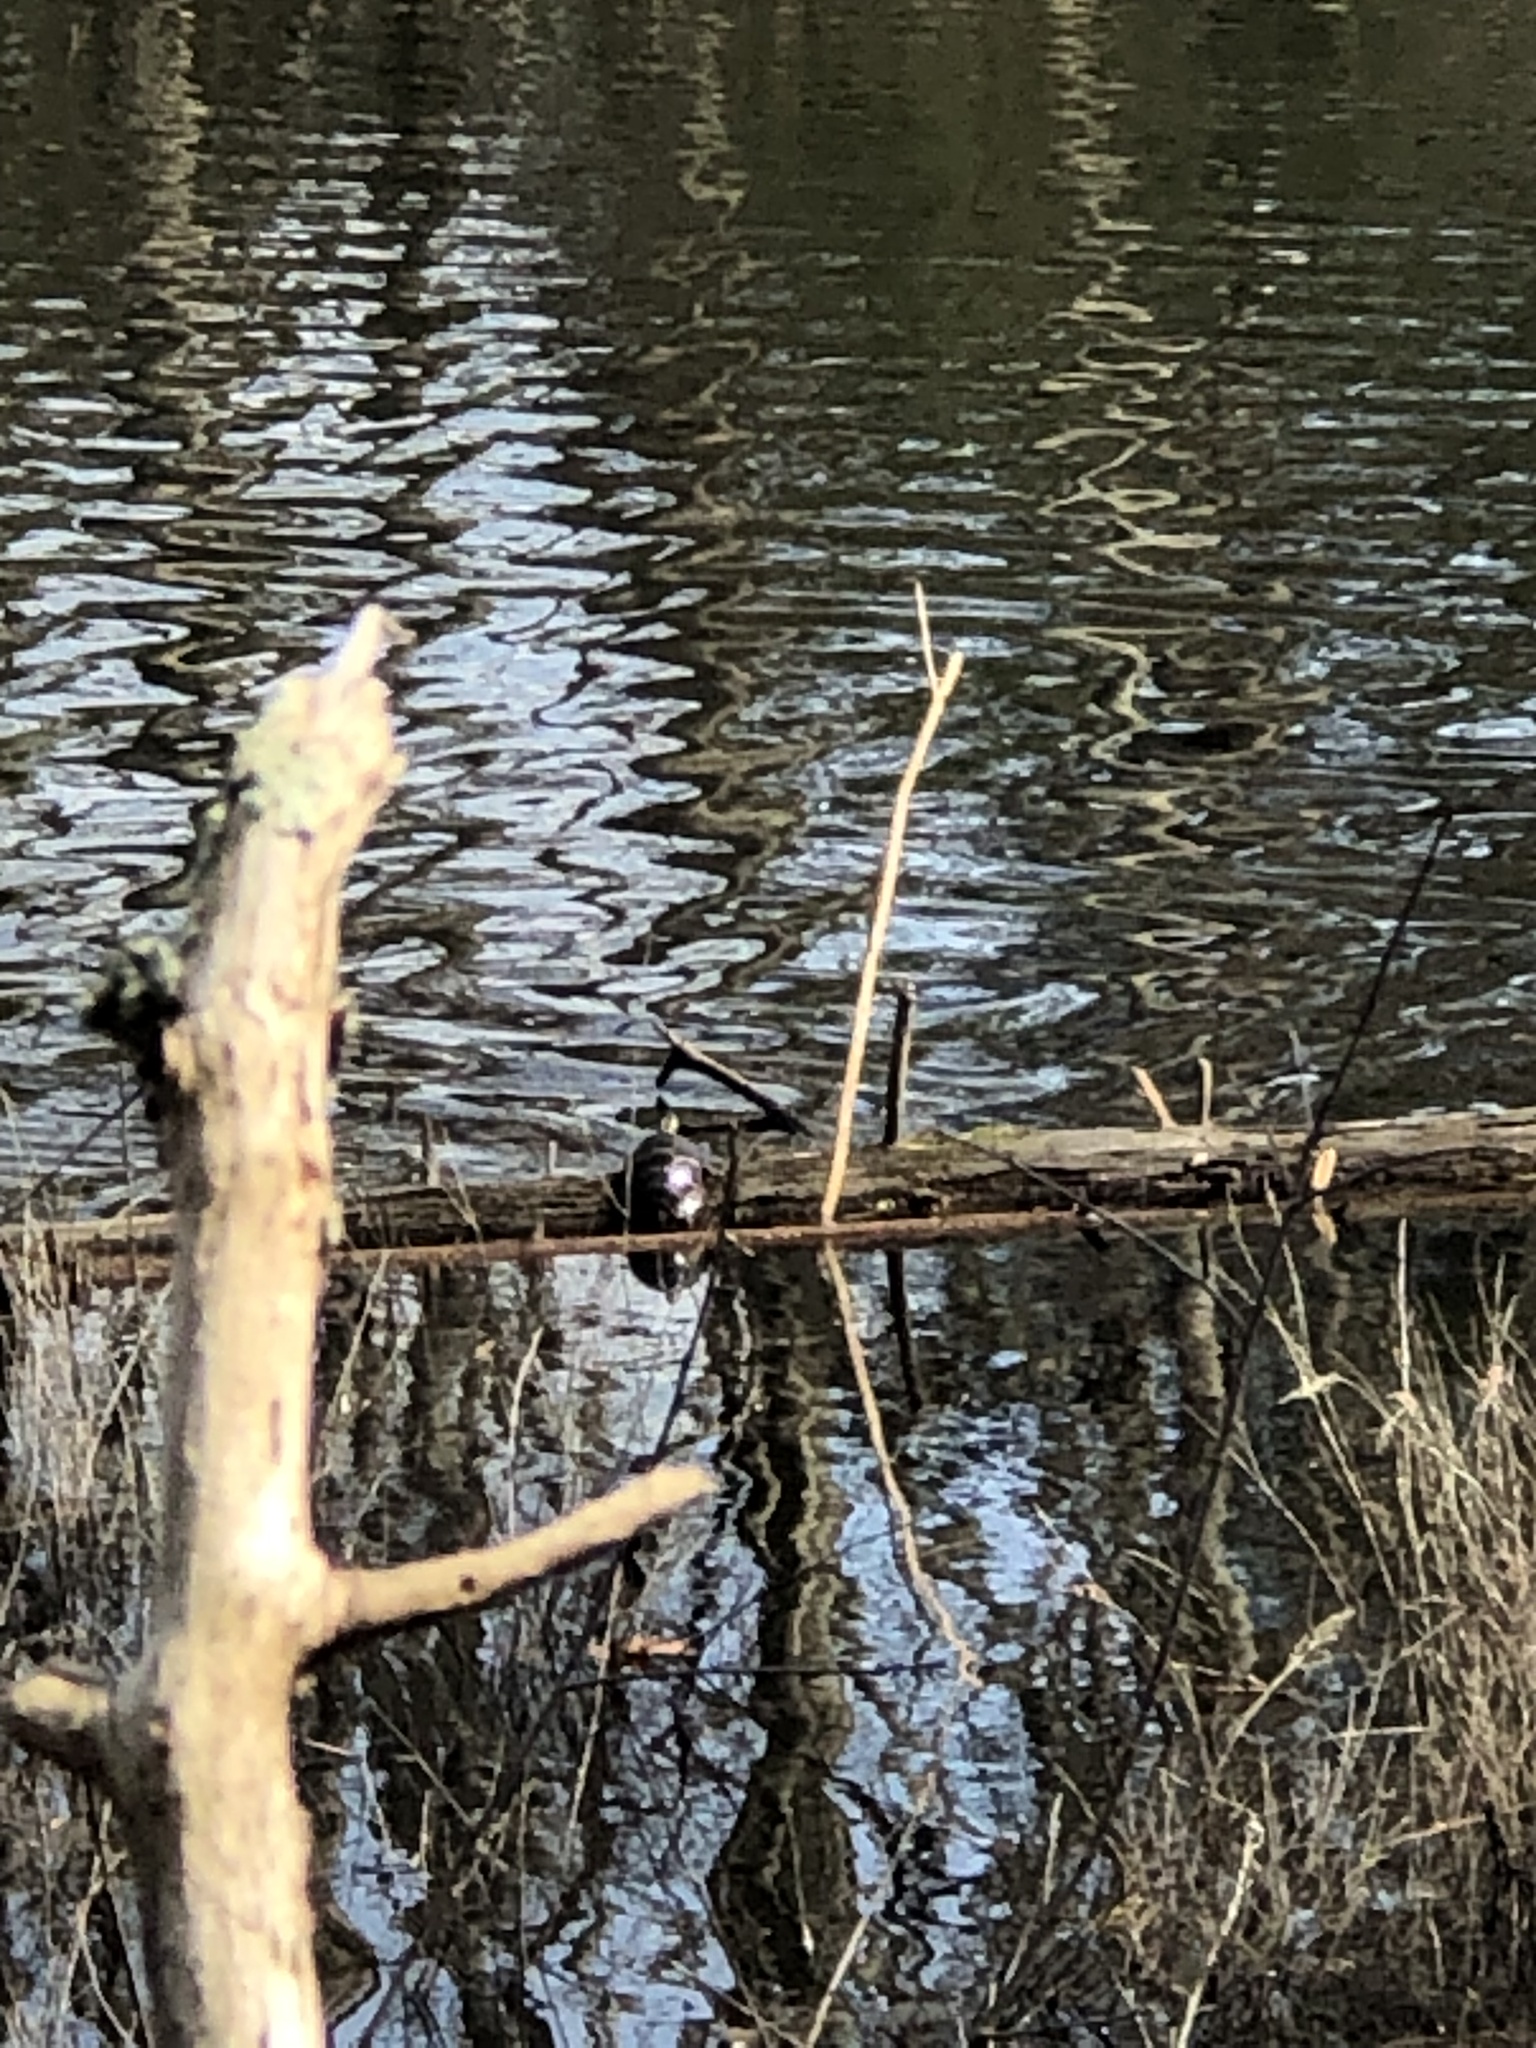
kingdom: Animalia
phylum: Chordata
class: Testudines
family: Emydidae
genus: Chrysemys
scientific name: Chrysemys picta
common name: Painted turtle
